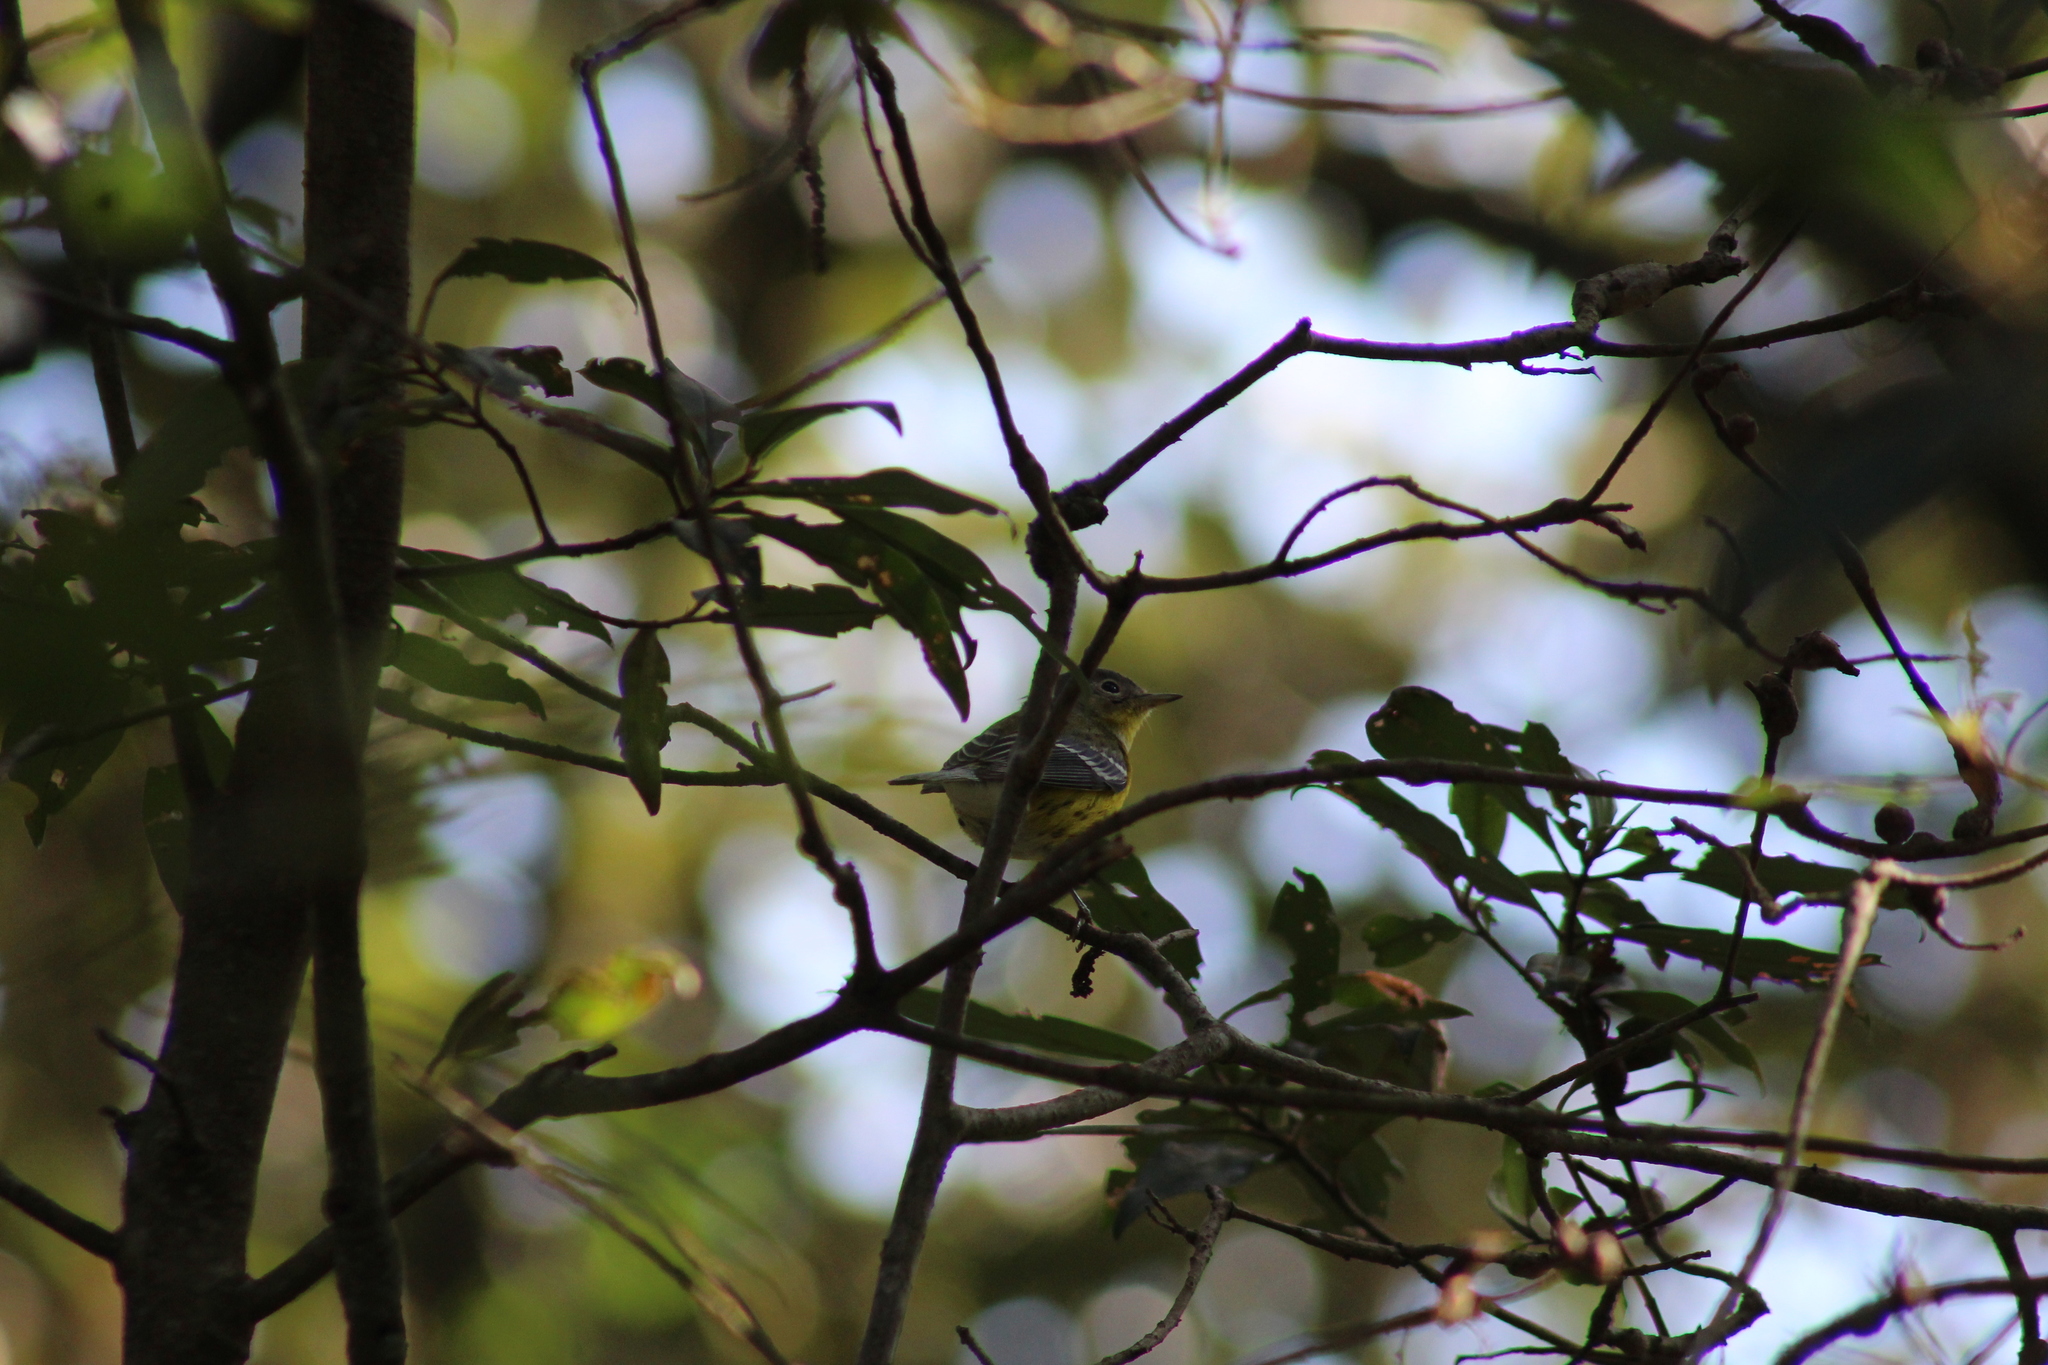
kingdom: Animalia
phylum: Chordata
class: Aves
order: Passeriformes
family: Parulidae
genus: Setophaga
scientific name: Setophaga magnolia
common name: Magnolia warbler
